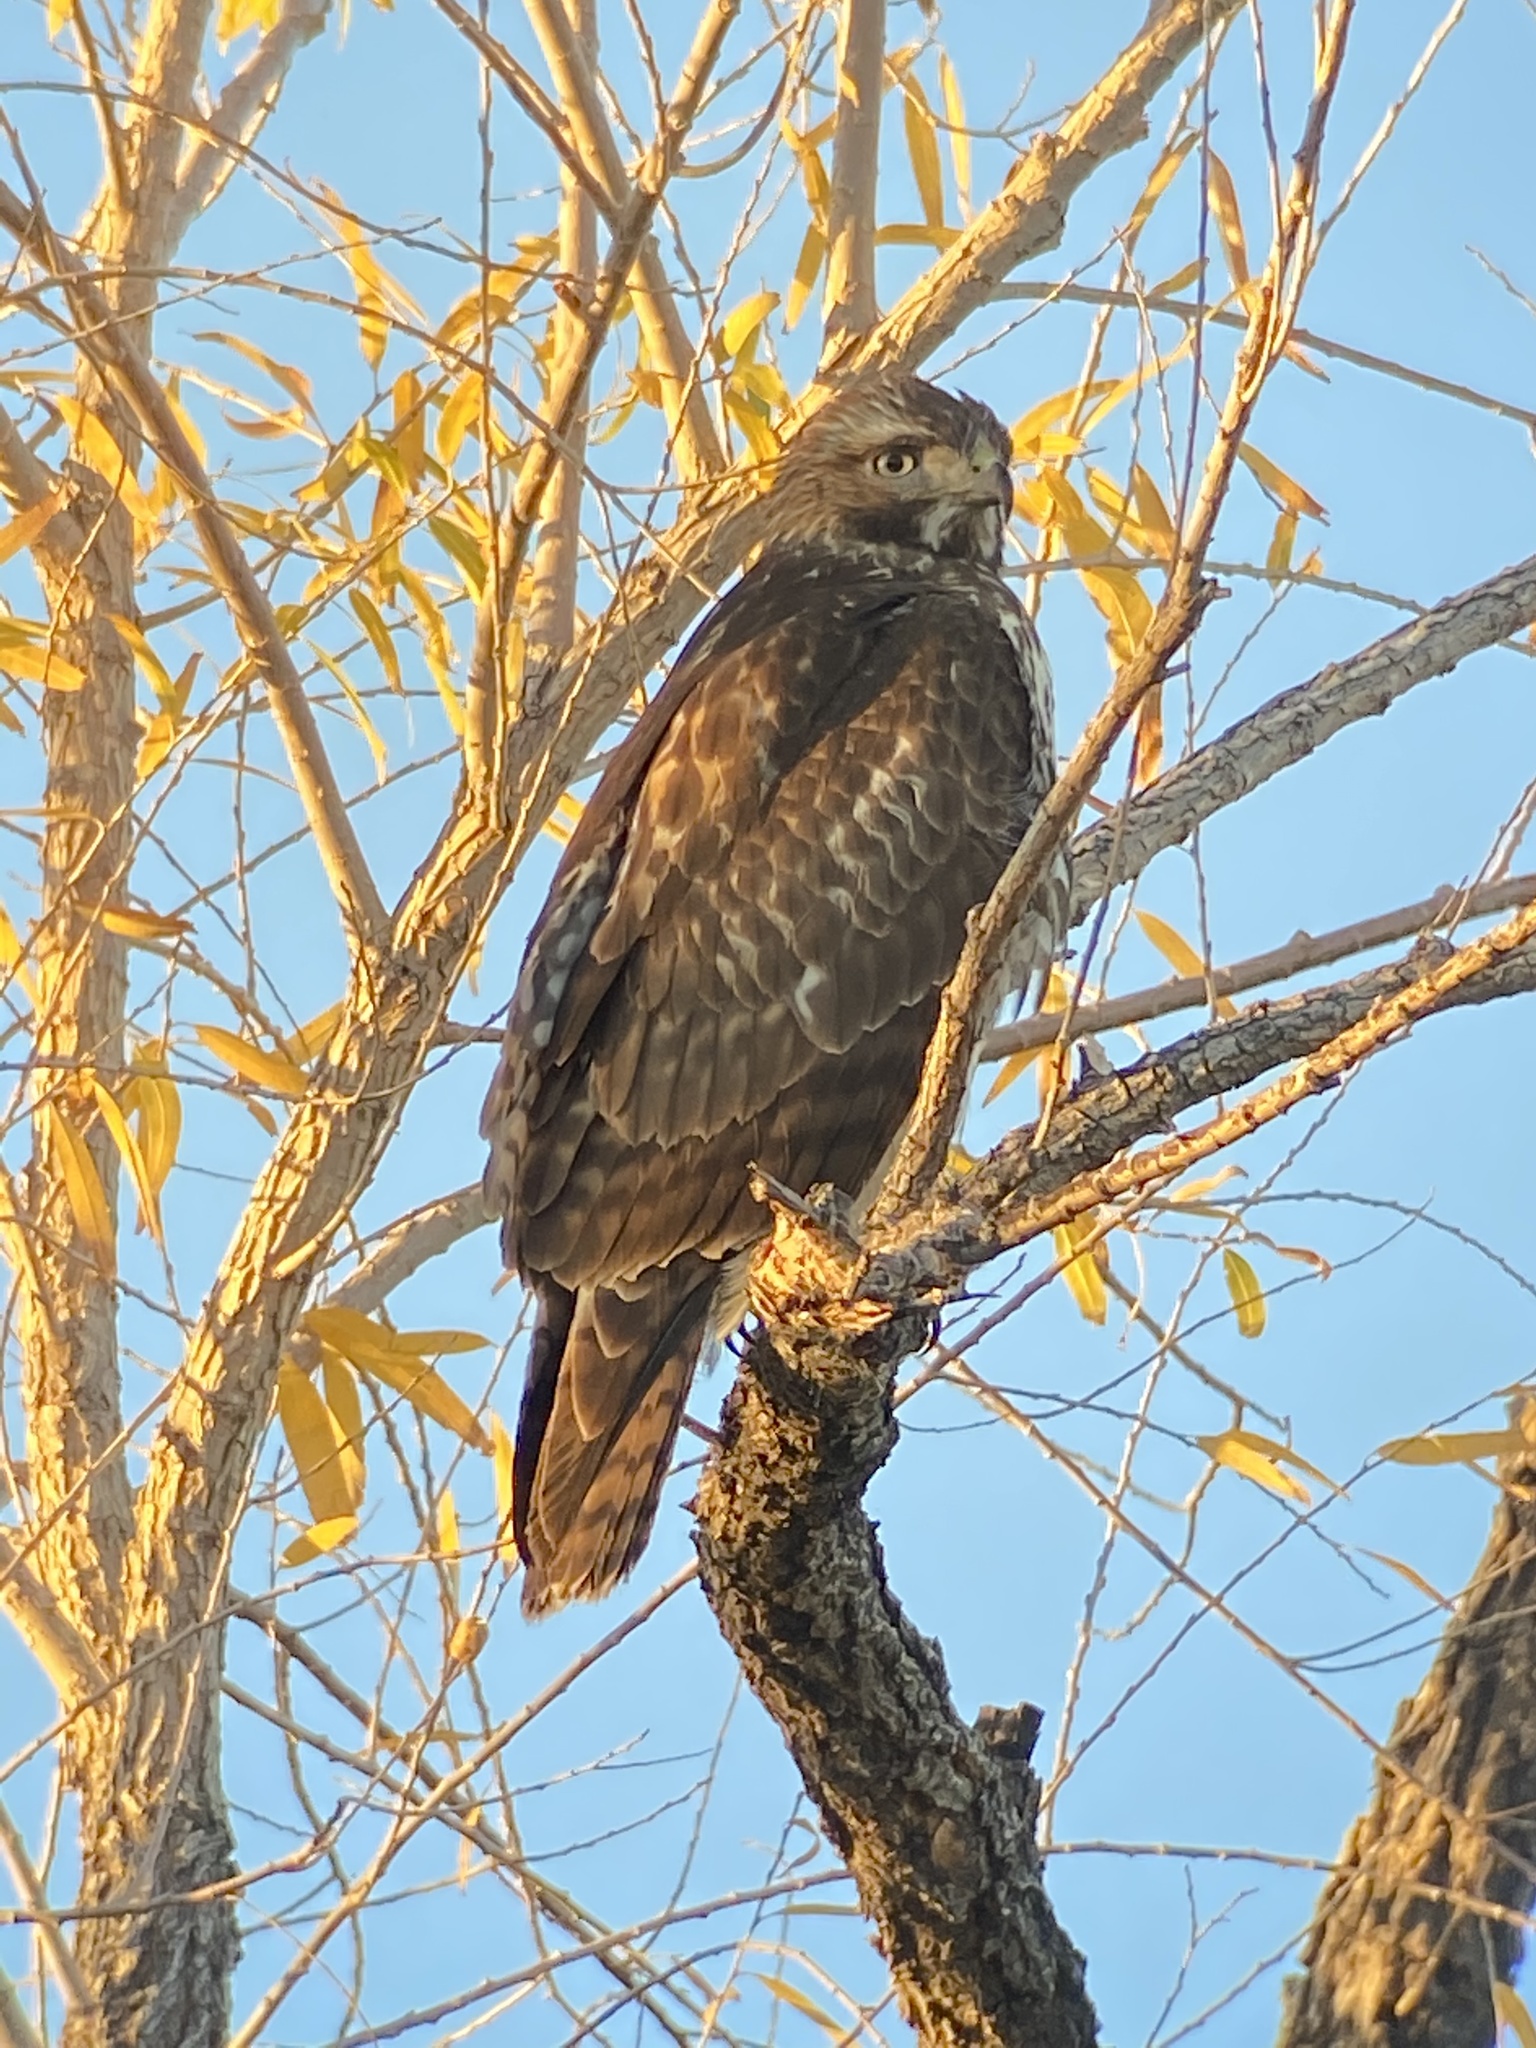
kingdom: Animalia
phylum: Chordata
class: Aves
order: Accipitriformes
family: Accipitridae
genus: Buteo
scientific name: Buteo jamaicensis
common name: Red-tailed hawk
